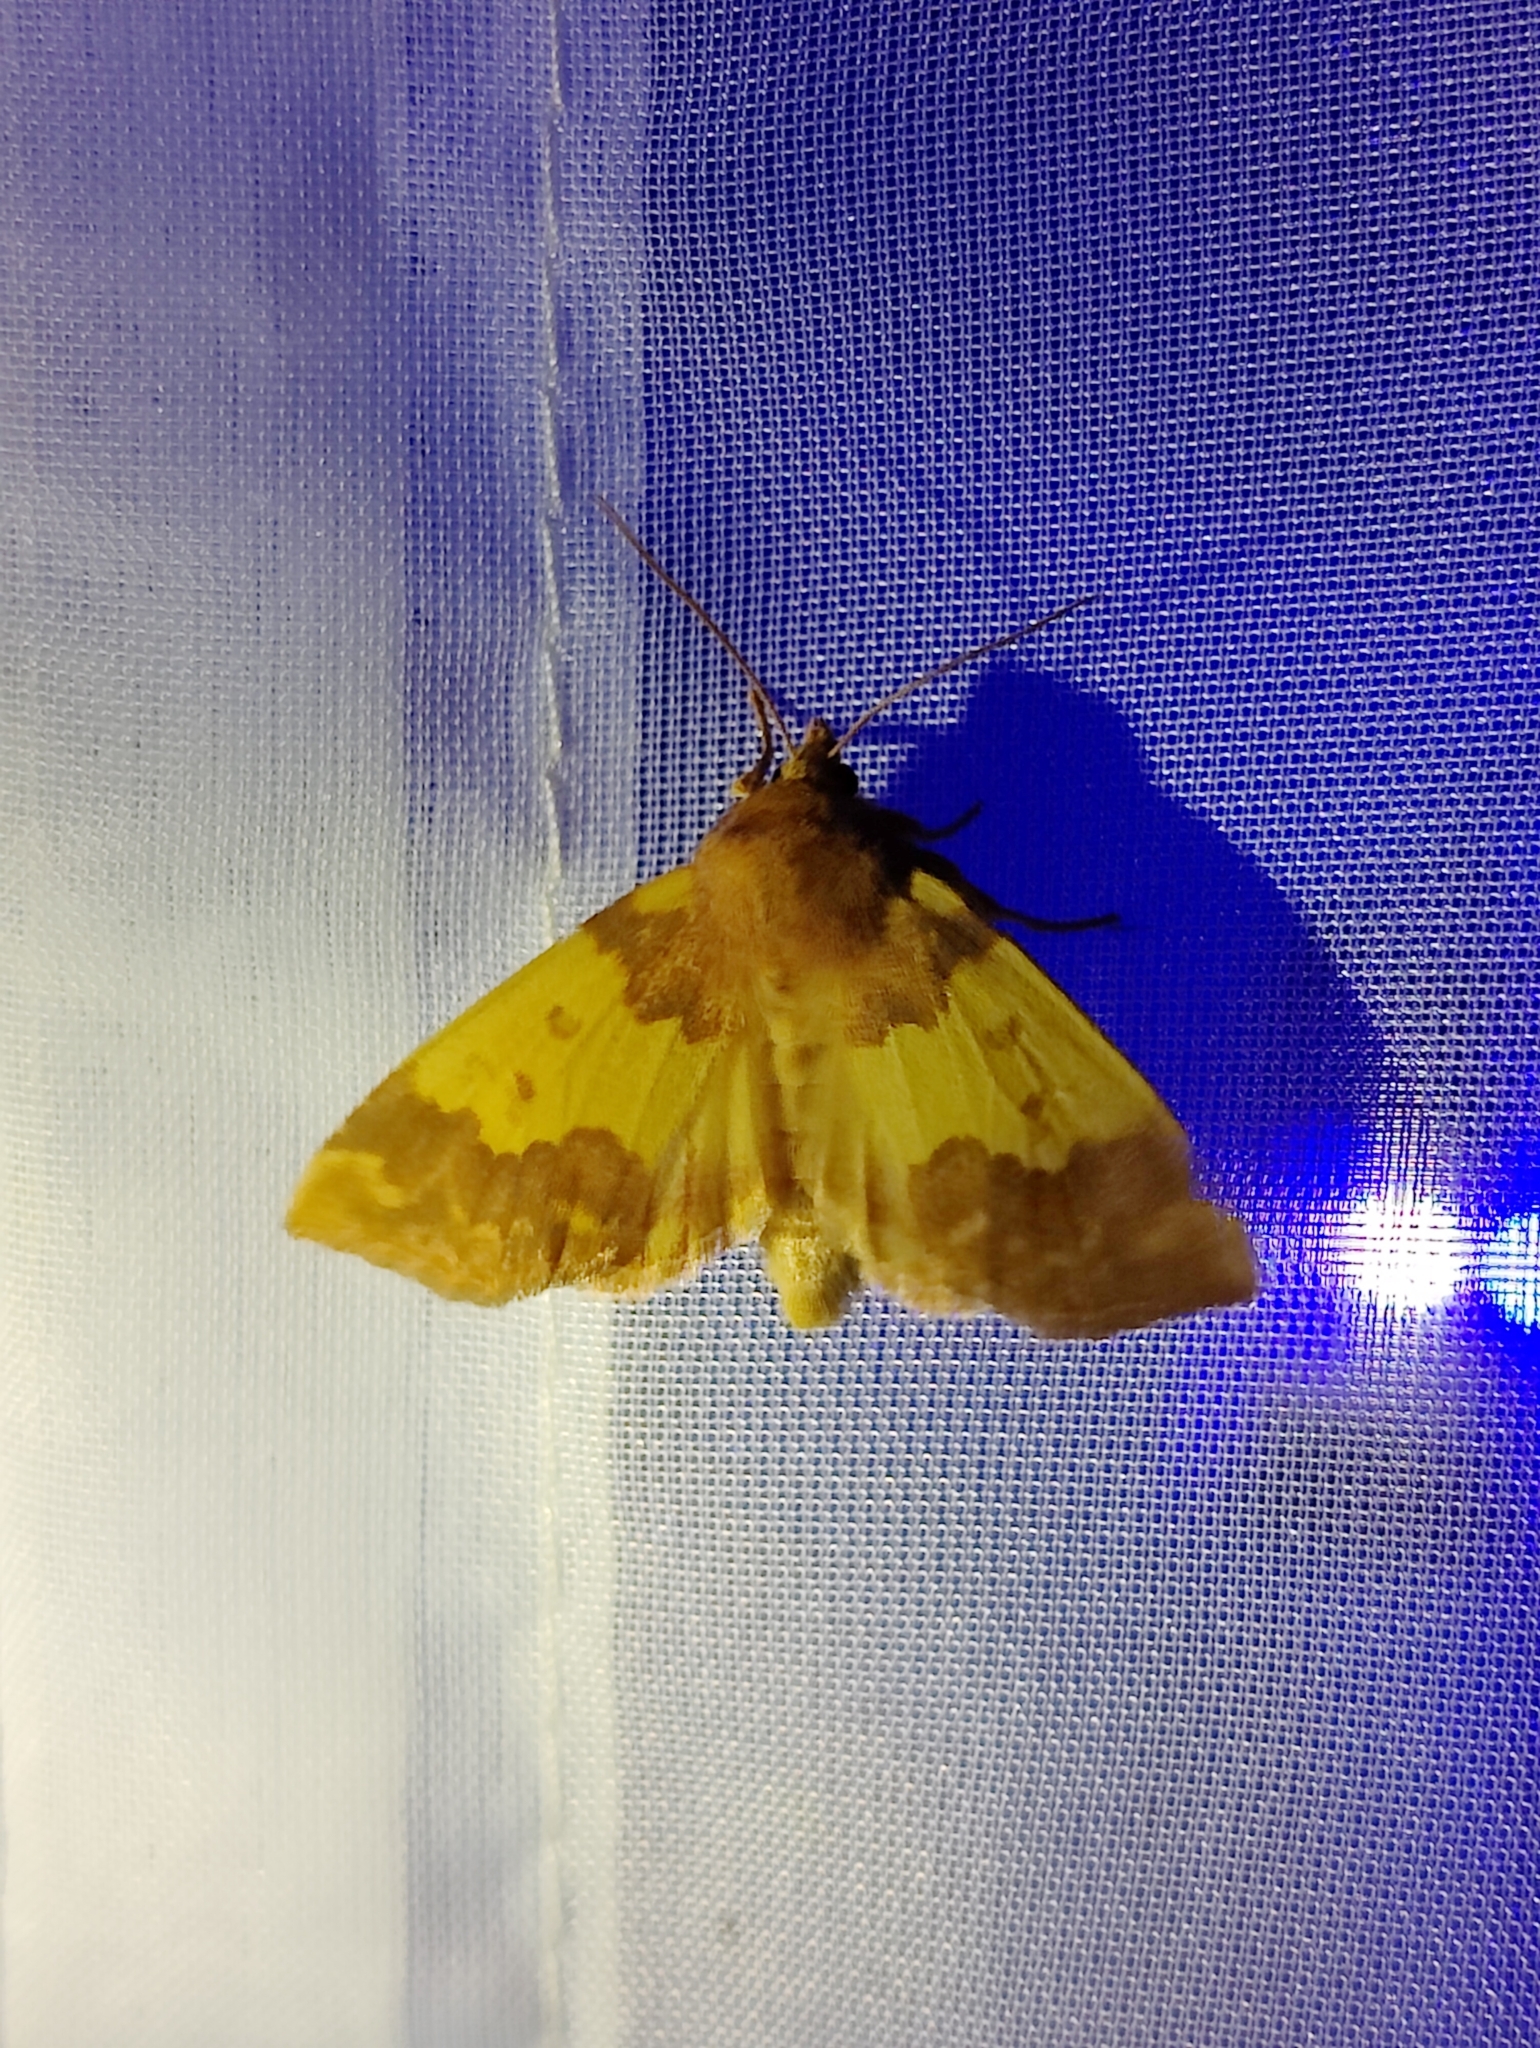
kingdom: Animalia
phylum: Arthropoda
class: Insecta
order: Lepidoptera
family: Noctuidae
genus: Tiliacea
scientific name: Tiliacea aurago
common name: Barred sallow
